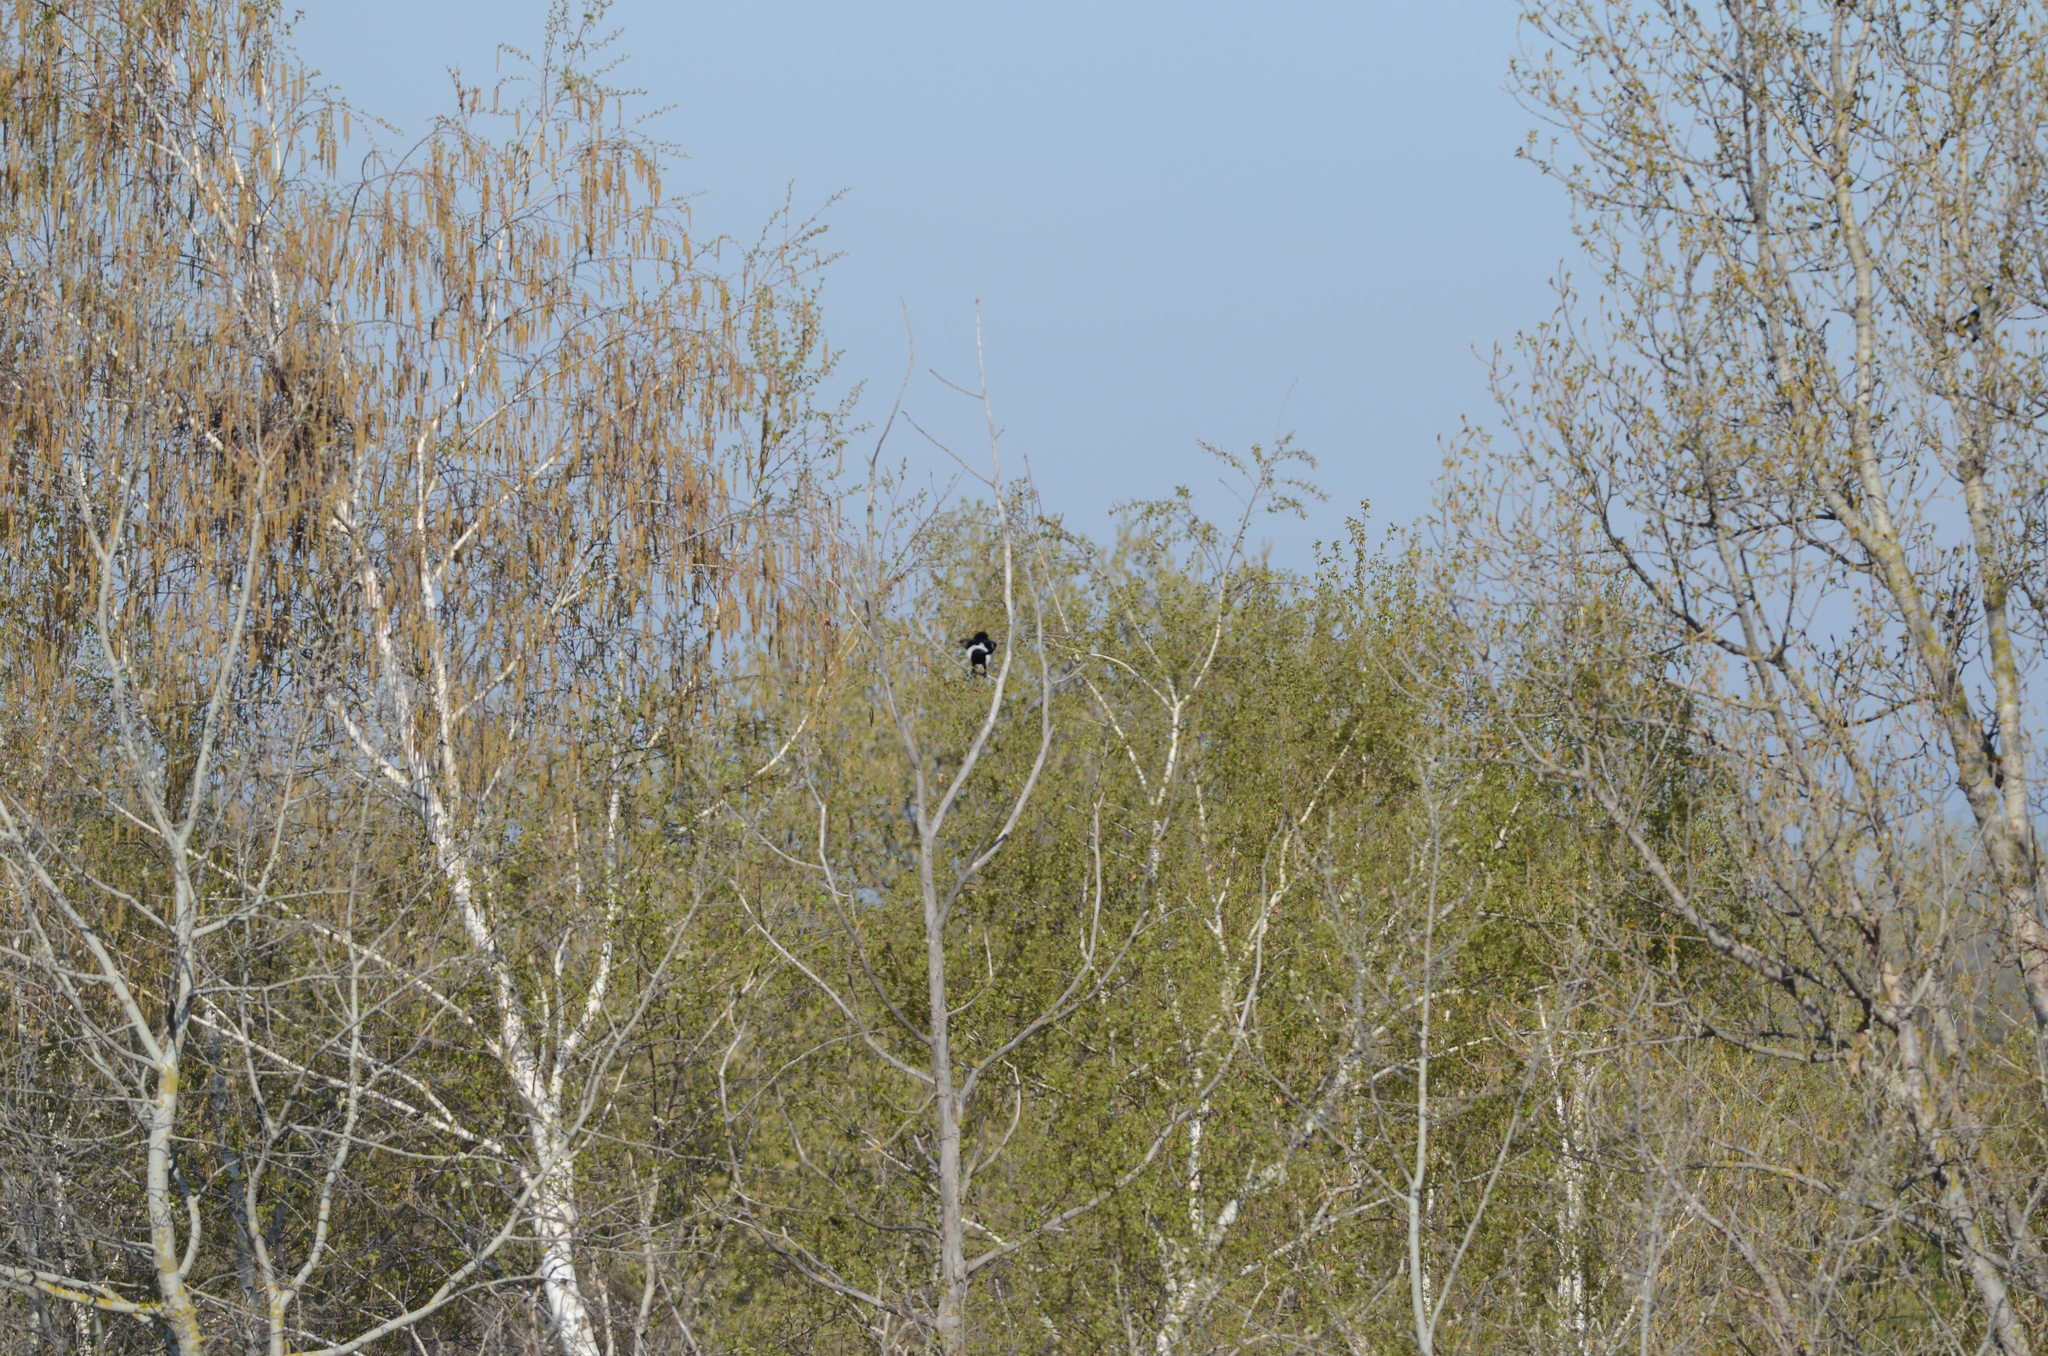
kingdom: Animalia
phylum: Chordata
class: Aves
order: Passeriformes
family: Corvidae
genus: Pica
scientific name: Pica pica
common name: Eurasian magpie
